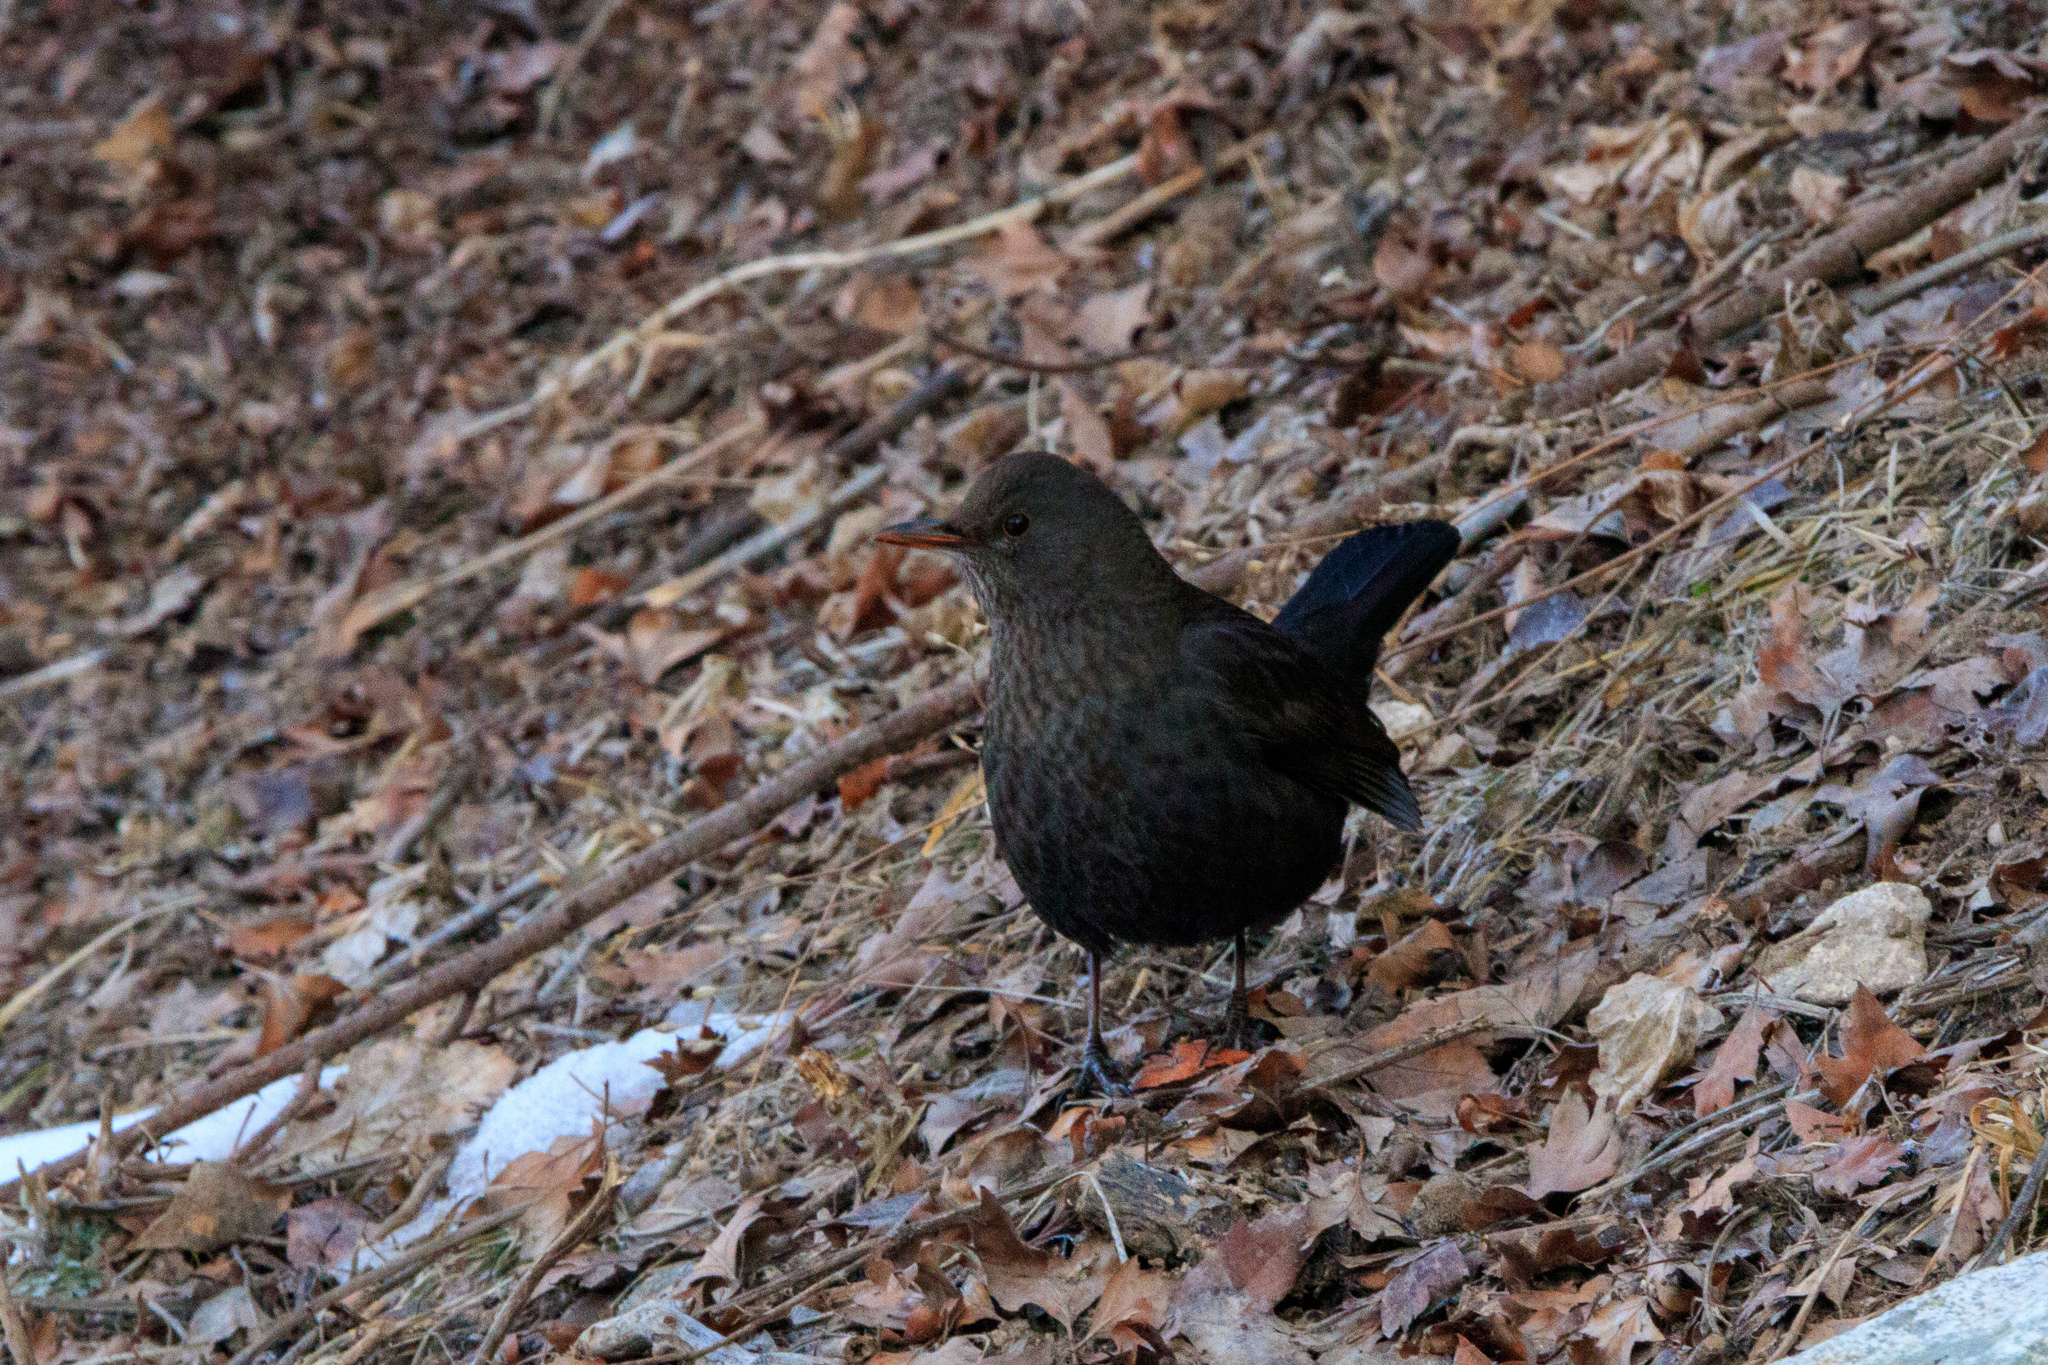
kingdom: Animalia
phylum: Chordata
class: Aves
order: Passeriformes
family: Turdidae
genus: Turdus
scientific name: Turdus merula
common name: Common blackbird
